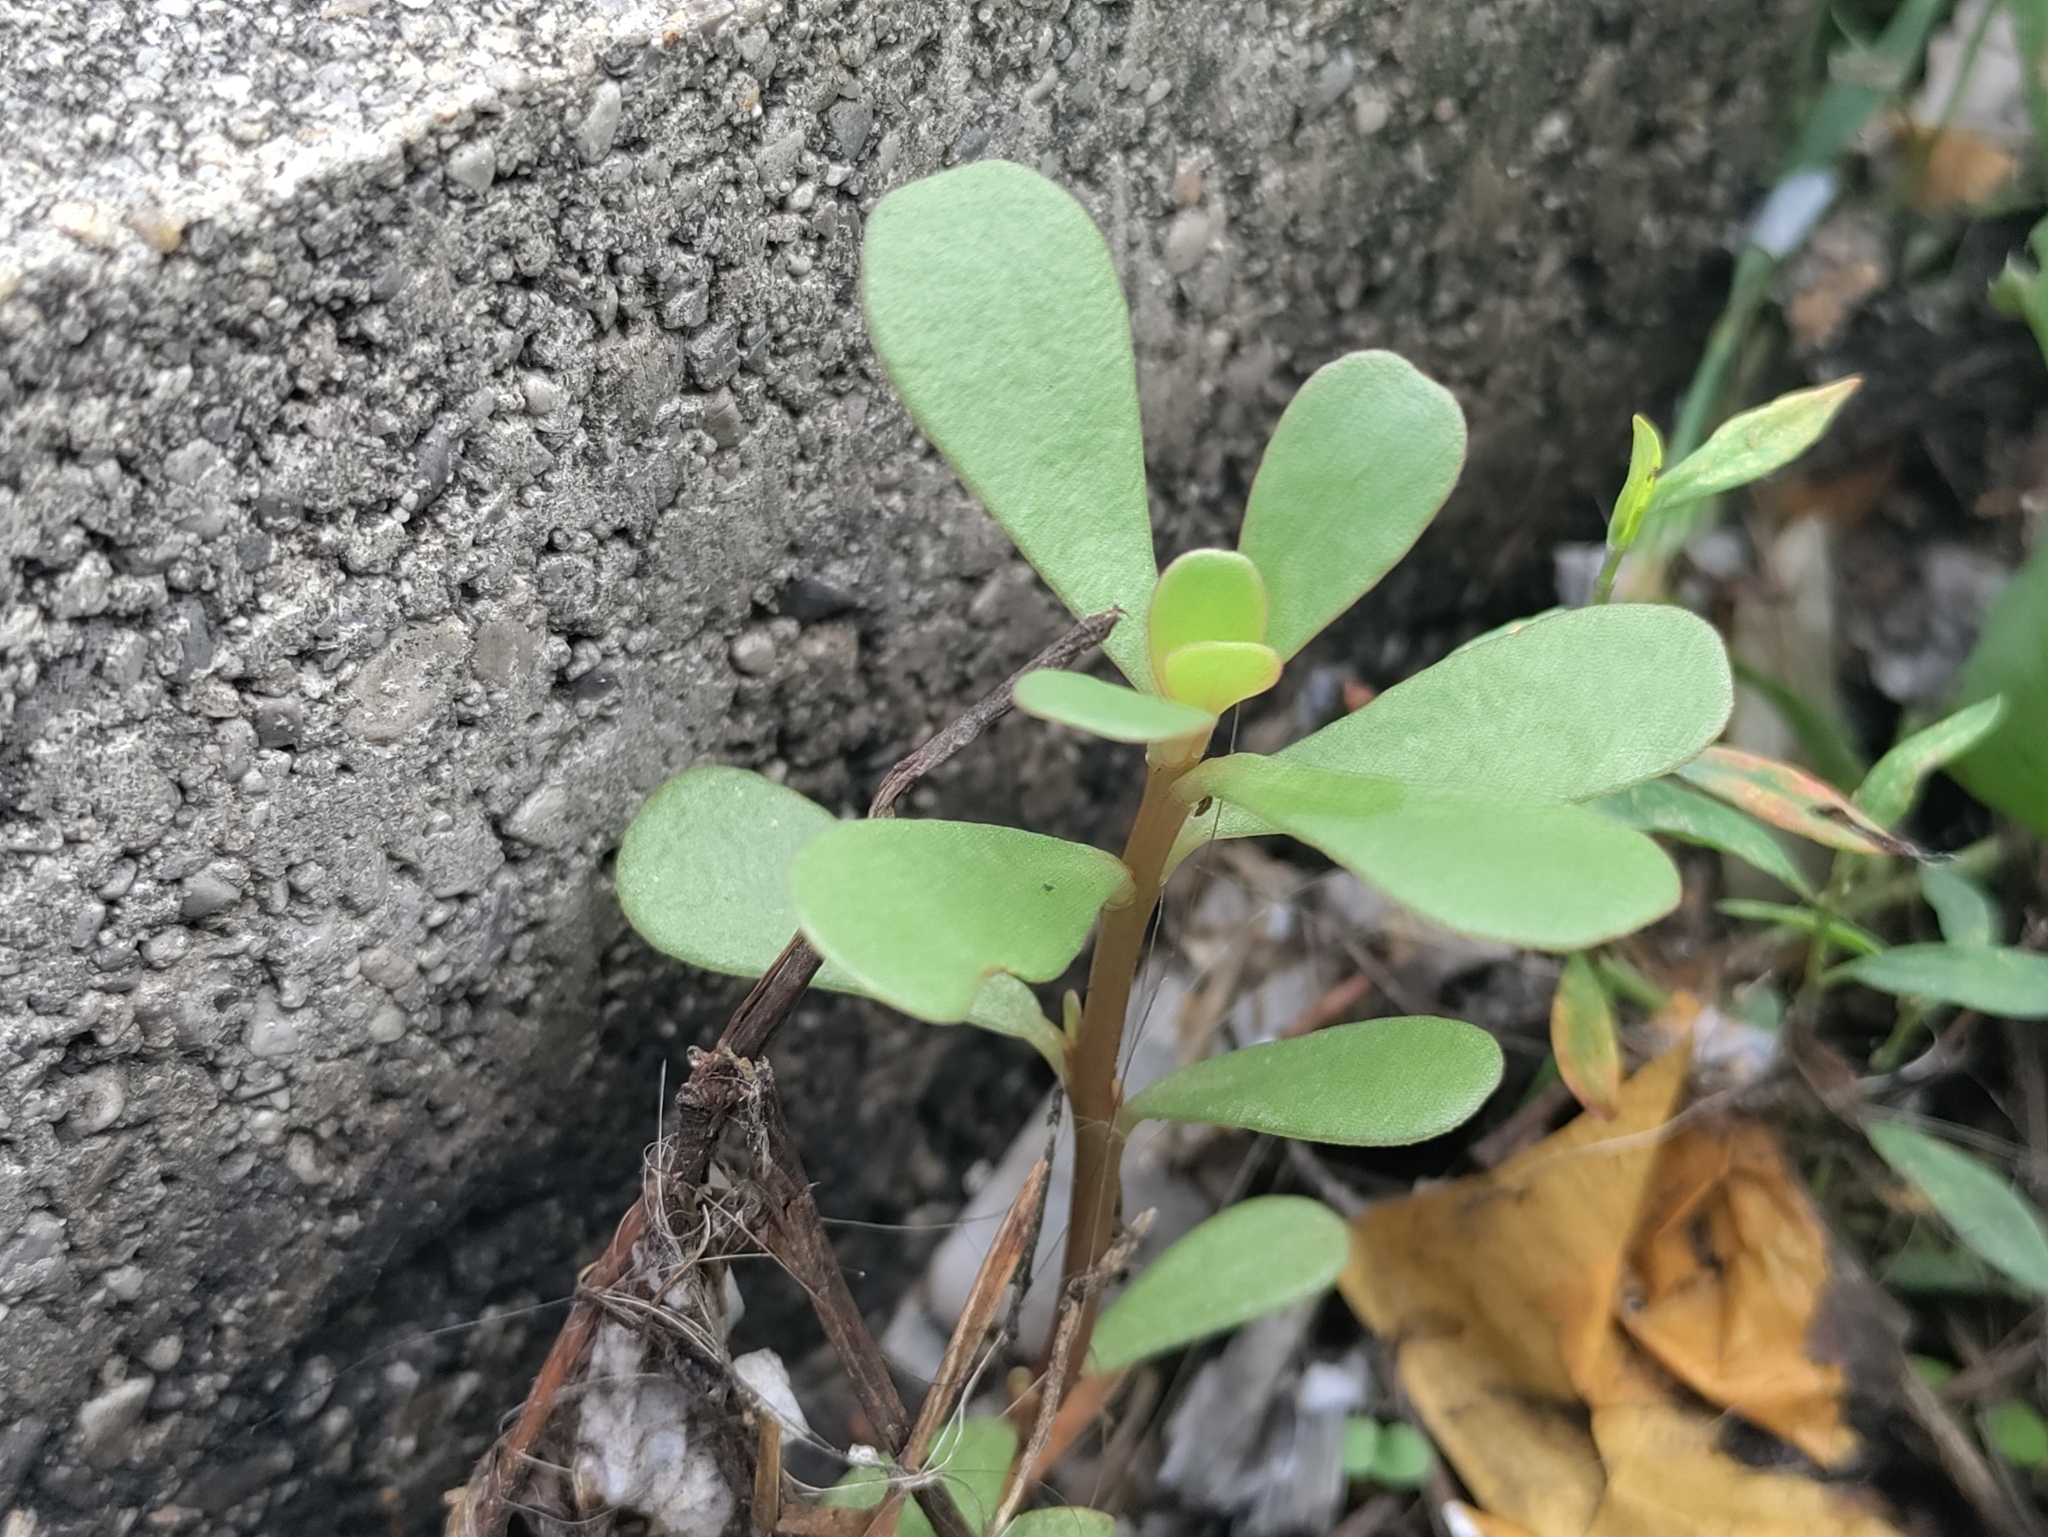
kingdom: Plantae
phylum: Tracheophyta
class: Magnoliopsida
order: Caryophyllales
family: Portulacaceae
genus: Portulaca
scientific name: Portulaca oleracea
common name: Common purslane
